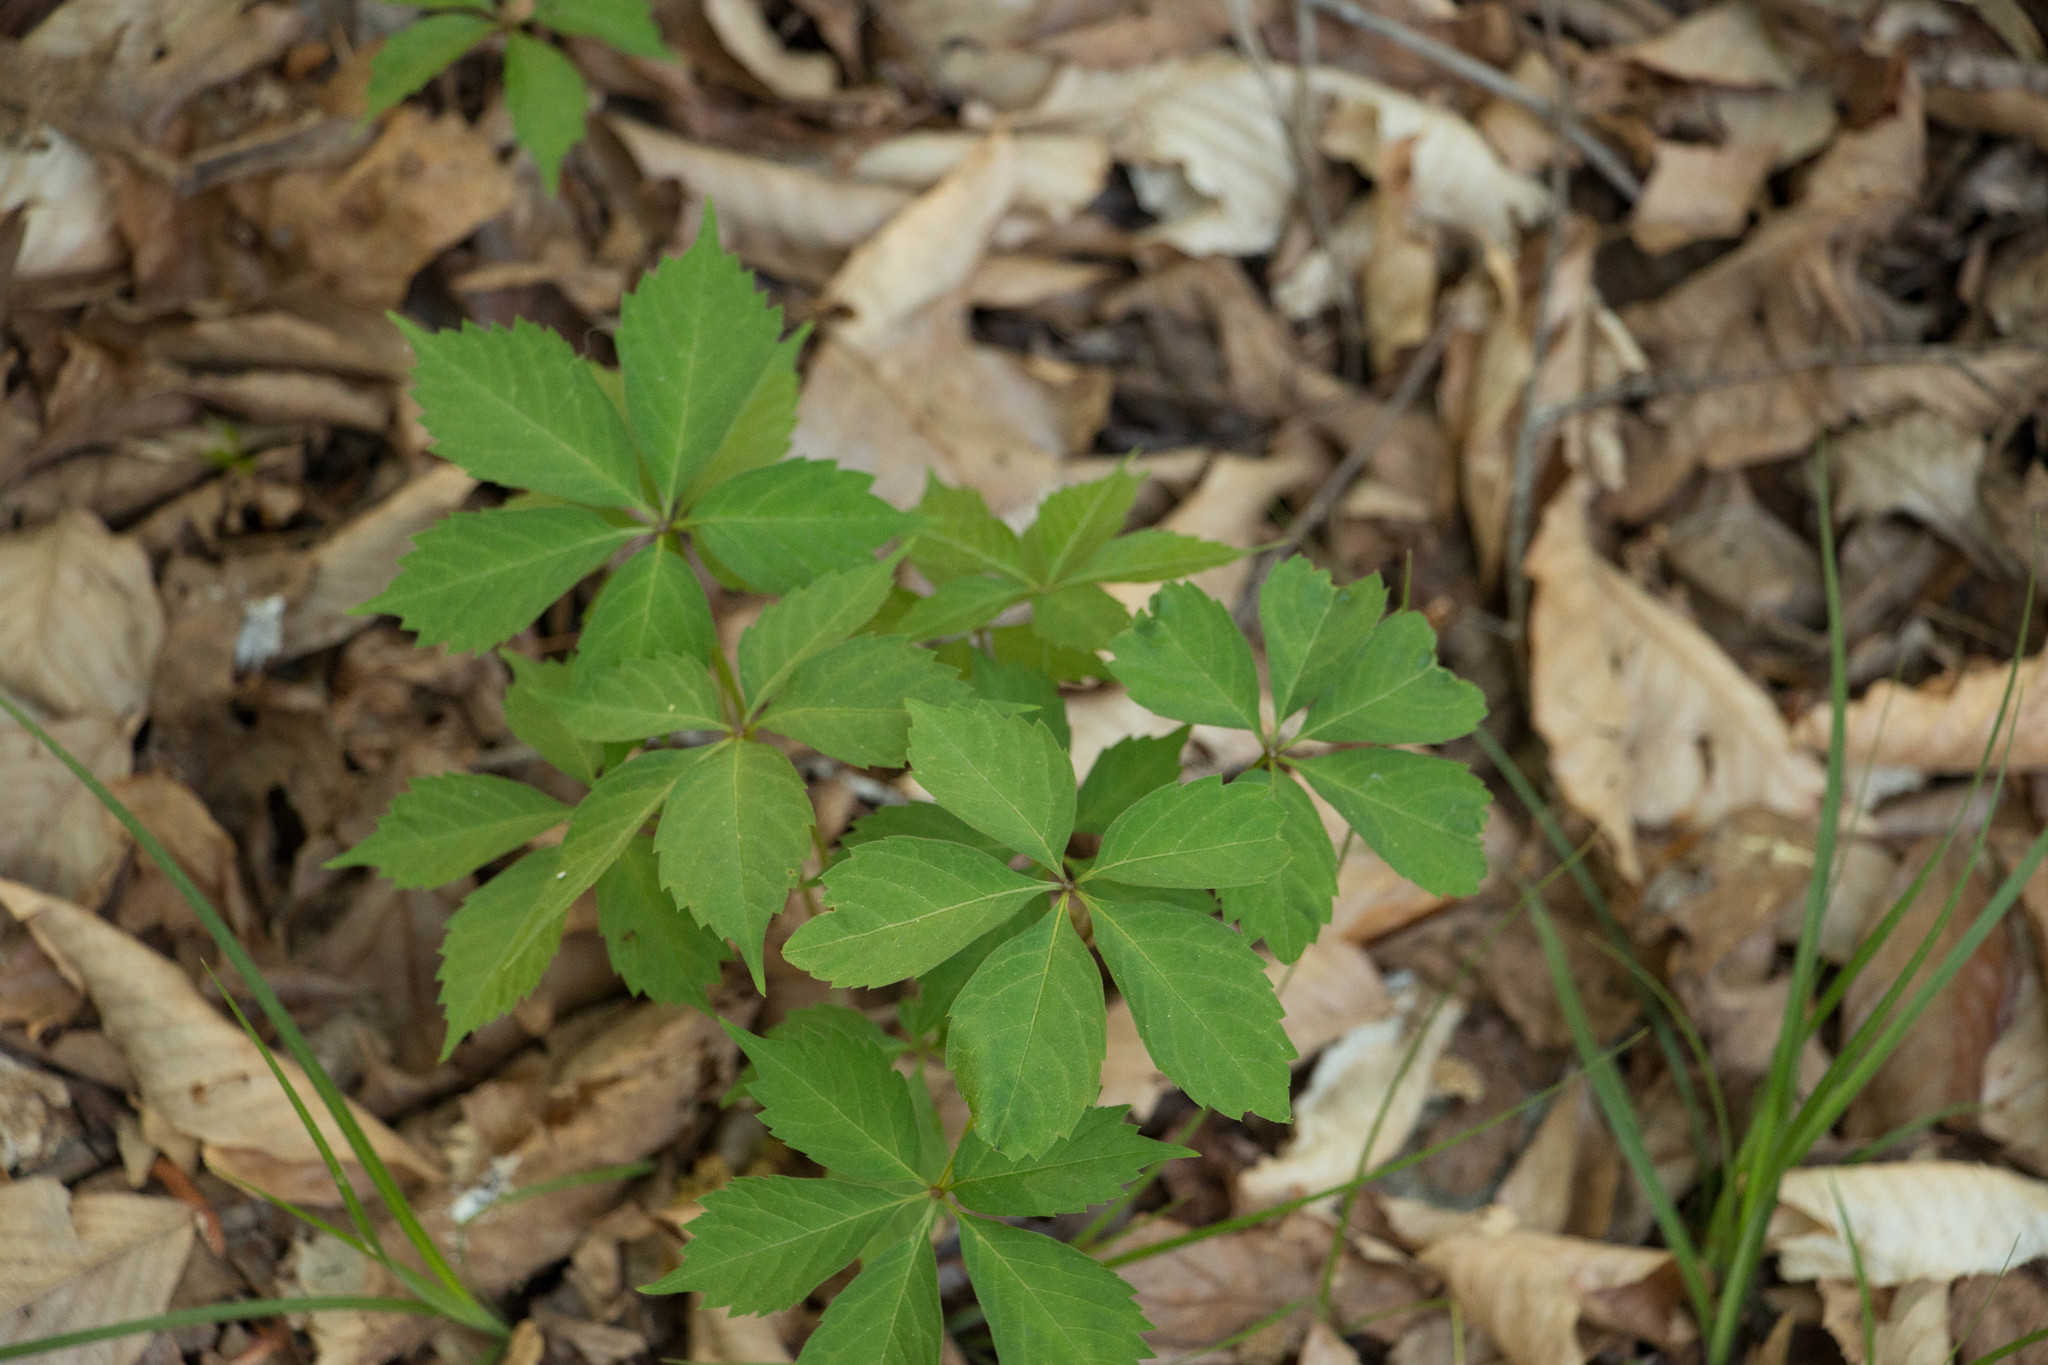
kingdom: Plantae
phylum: Tracheophyta
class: Magnoliopsida
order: Vitales
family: Vitaceae
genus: Parthenocissus
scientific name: Parthenocissus quinquefolia
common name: Virginia-creeper
